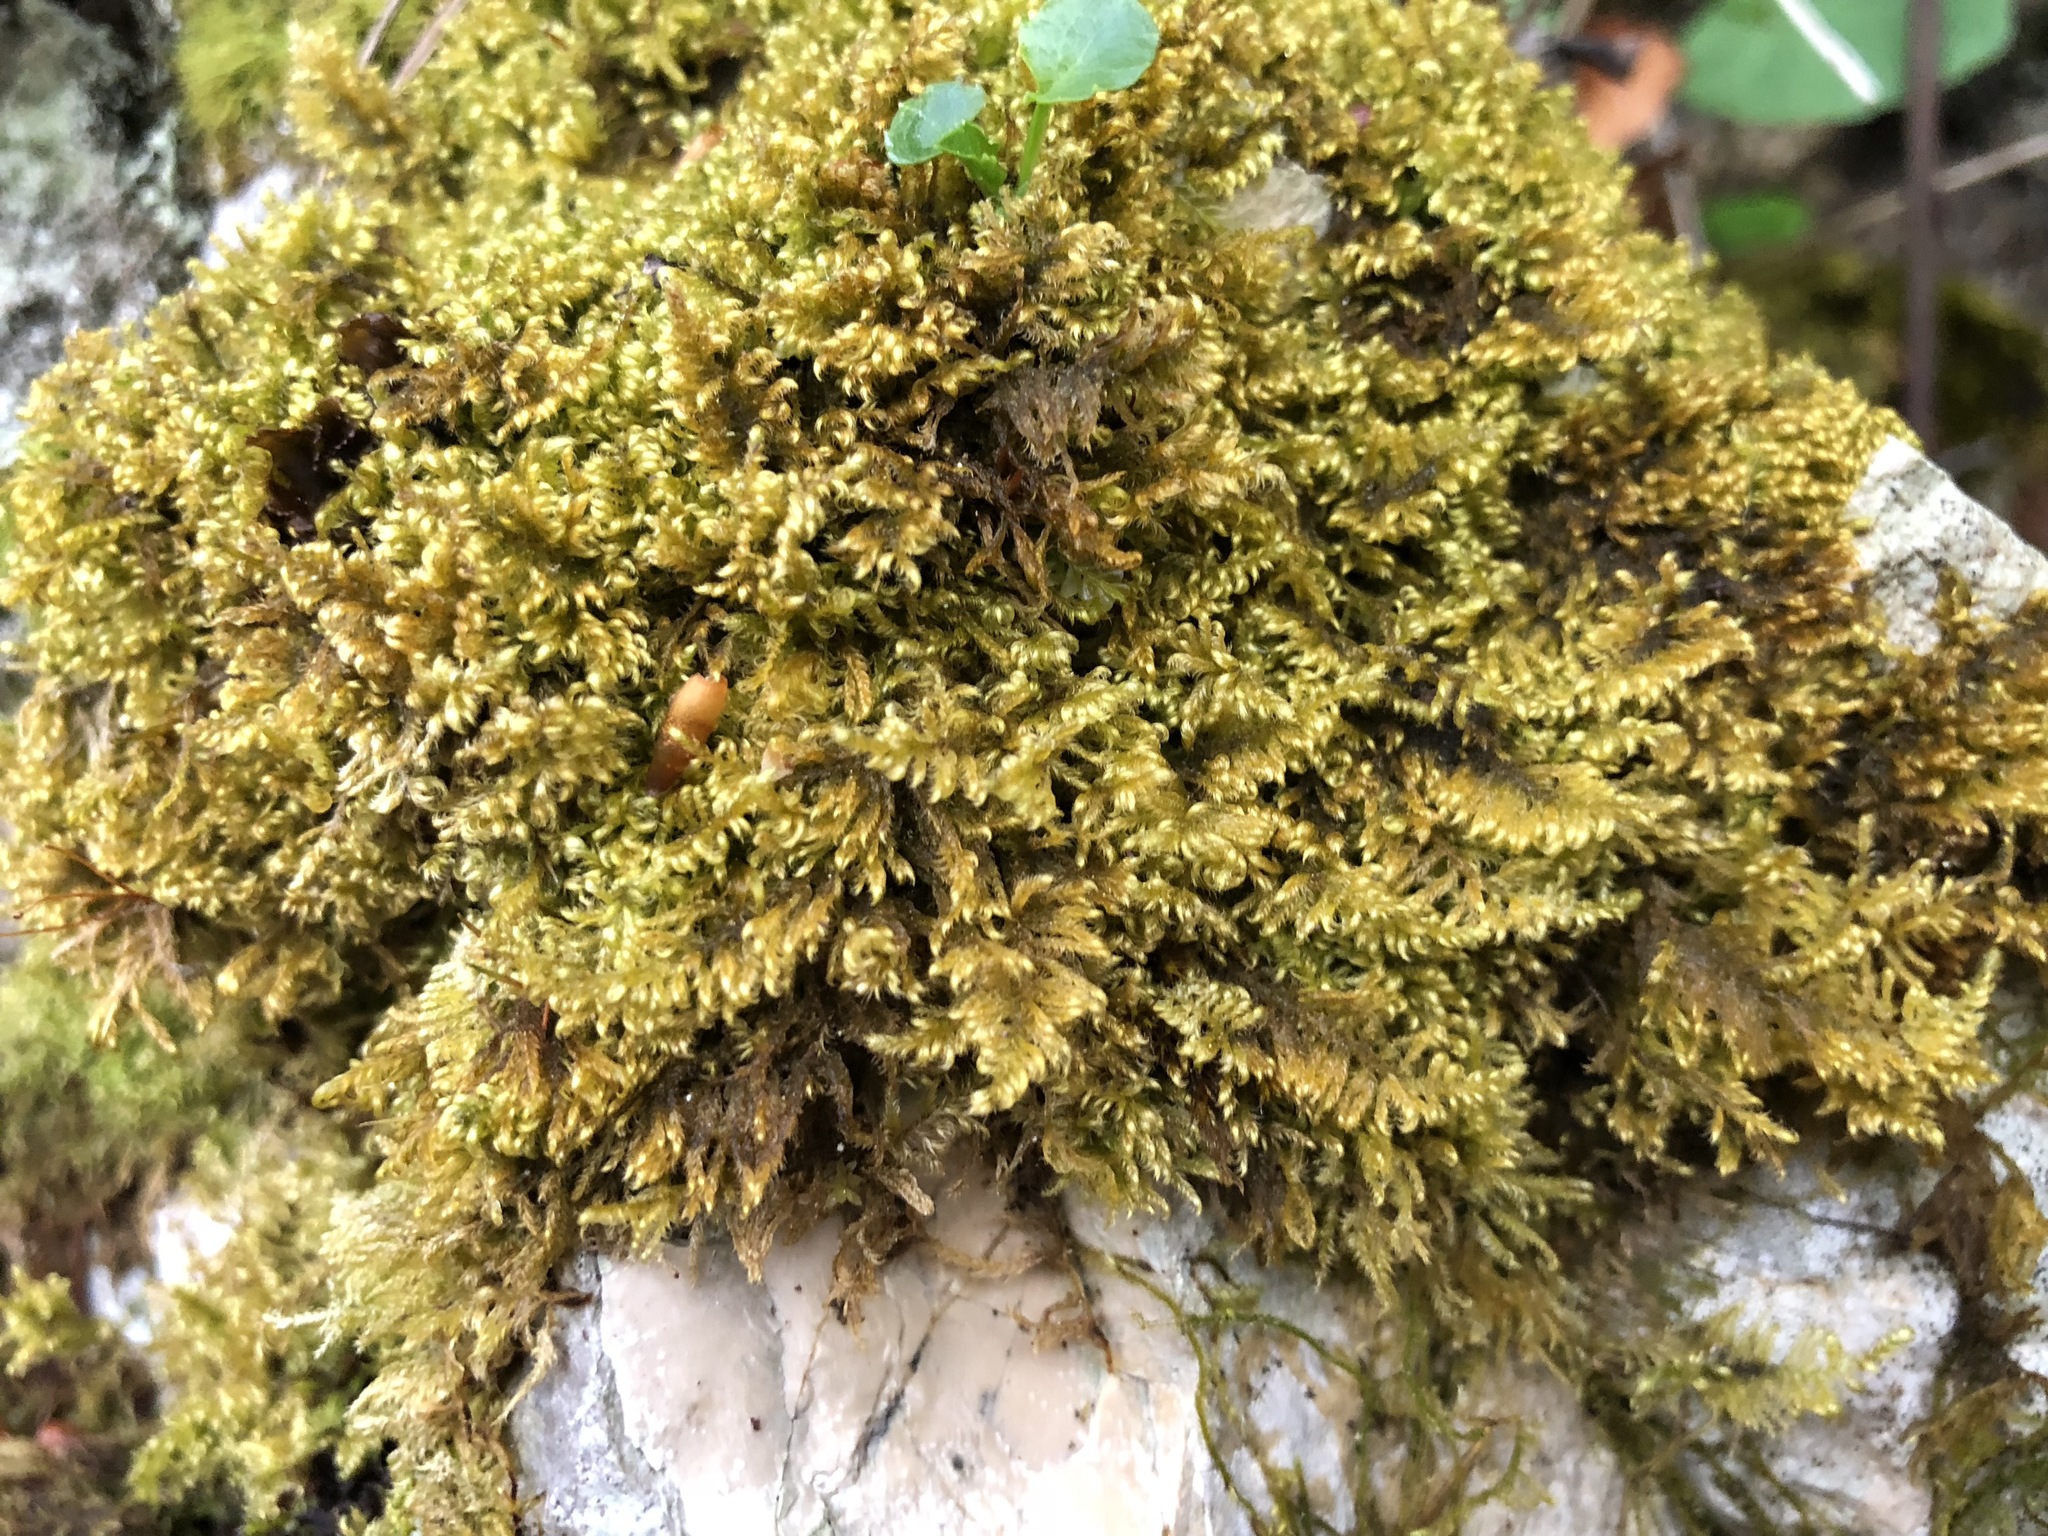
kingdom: Plantae
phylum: Bryophyta
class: Bryopsida
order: Hypnales
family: Myuriaceae
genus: Ctenidium
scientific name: Ctenidium molluscum
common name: Chalk comb-moss
